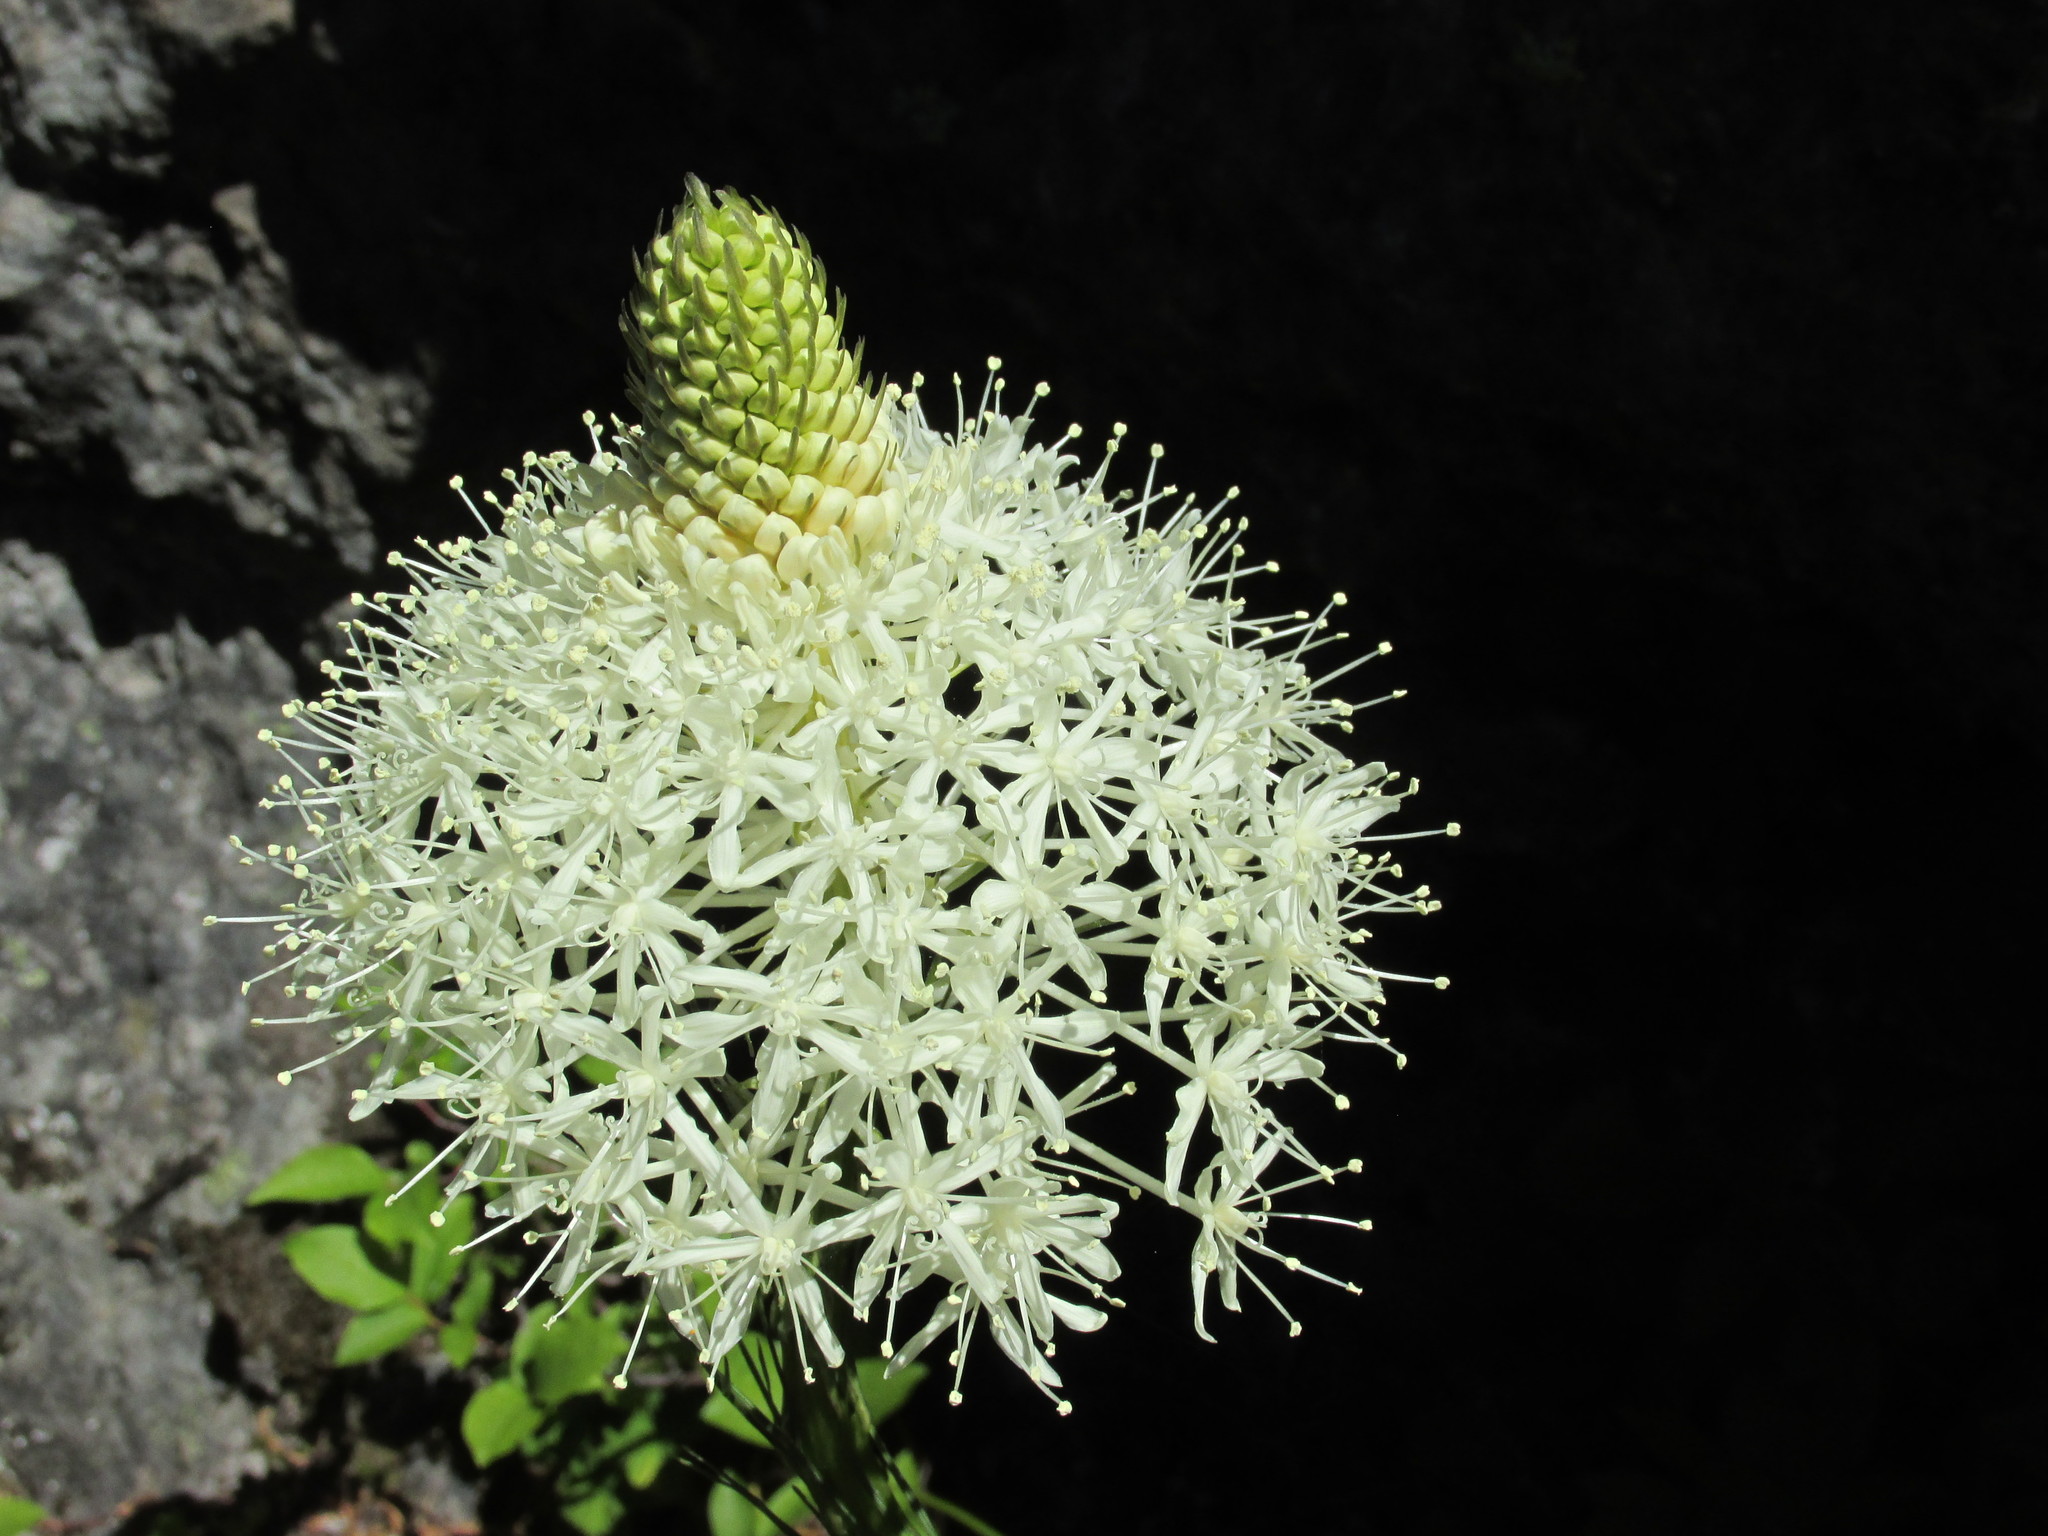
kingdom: Plantae
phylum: Tracheophyta
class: Liliopsida
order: Liliales
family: Melanthiaceae
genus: Xerophyllum
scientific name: Xerophyllum tenax
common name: Bear-grass
